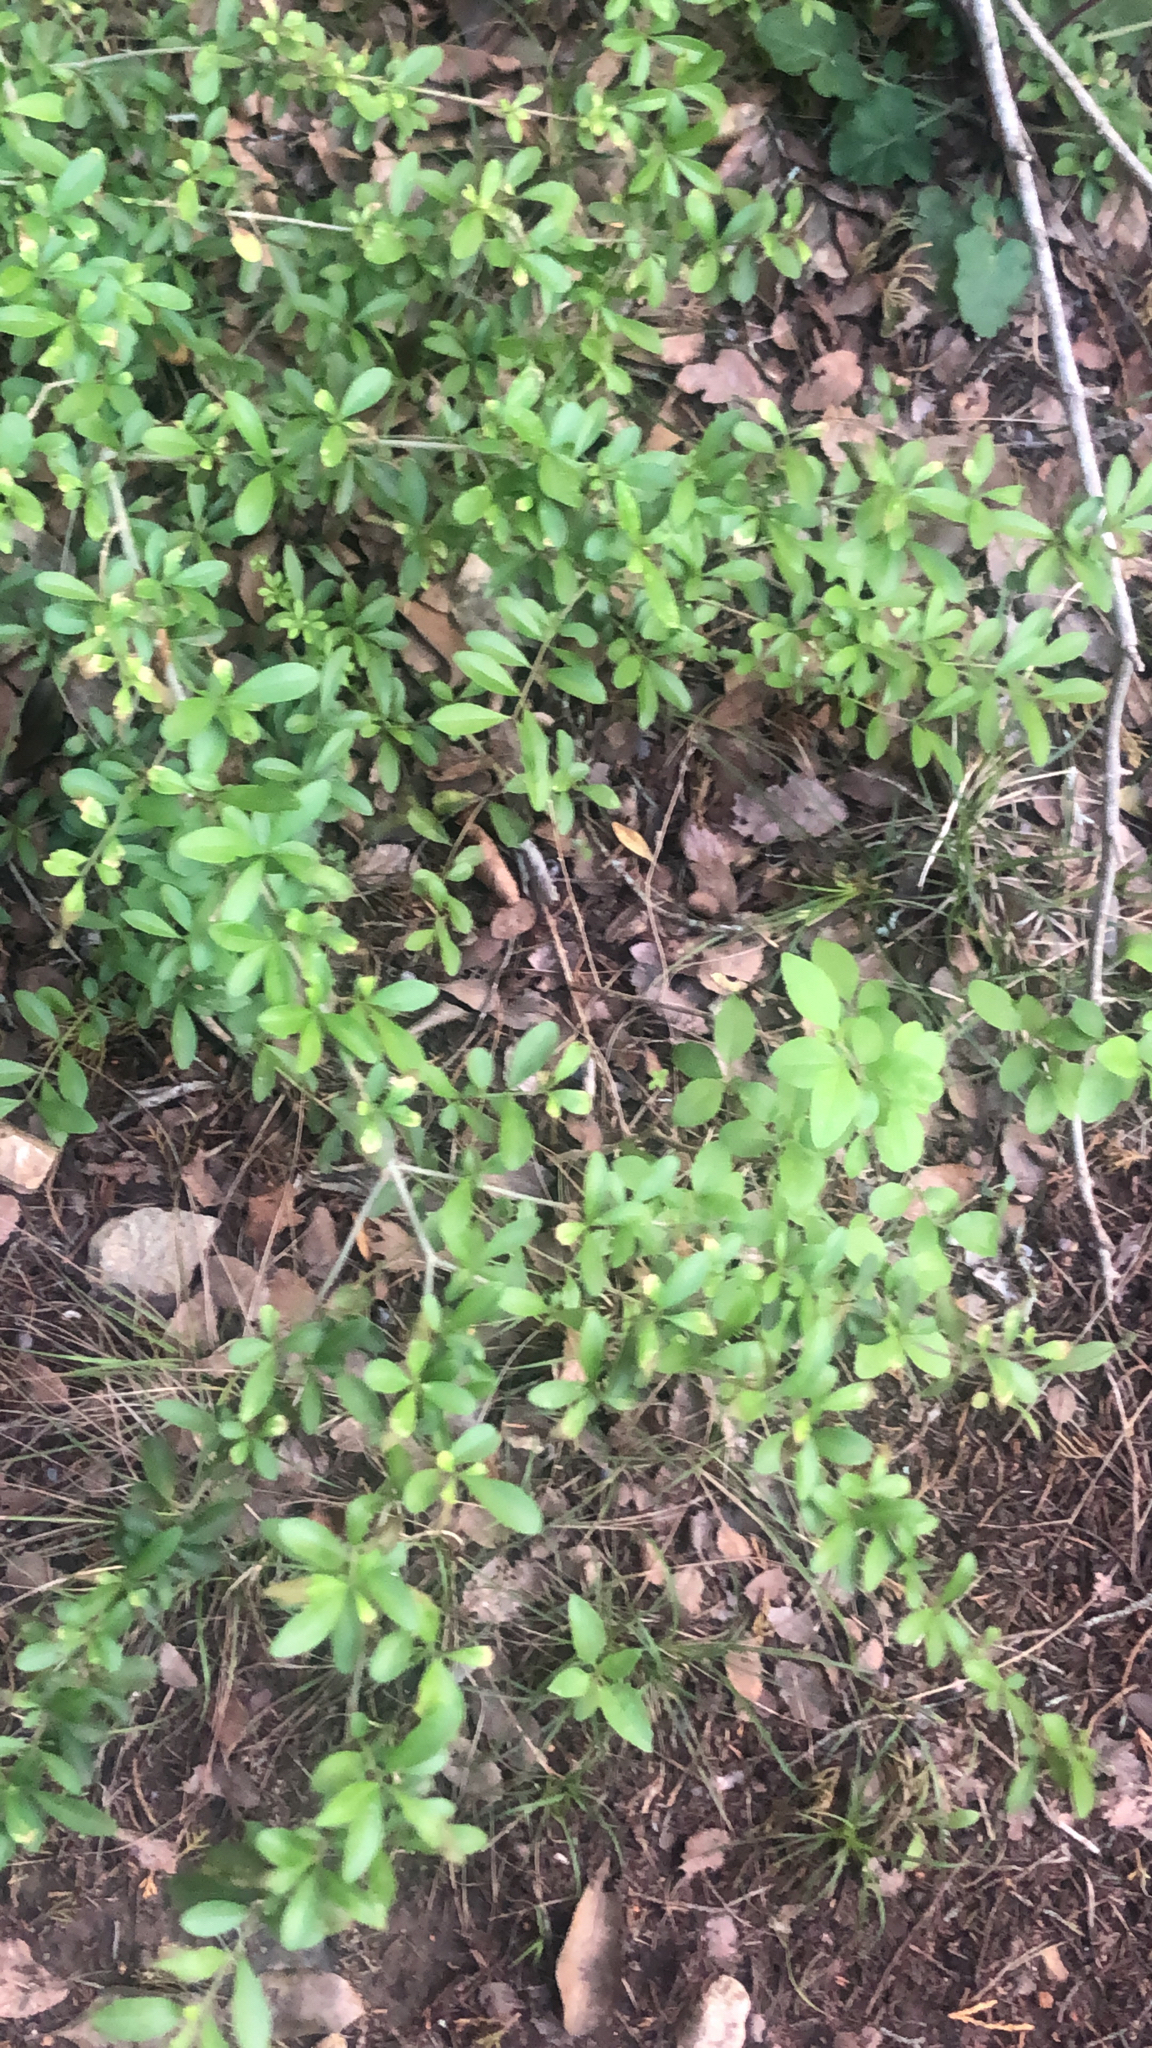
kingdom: Plantae
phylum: Tracheophyta
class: Magnoliopsida
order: Lamiales
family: Oleaceae
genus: Ligustrum
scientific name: Ligustrum quihoui
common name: Waxyleaf privet
